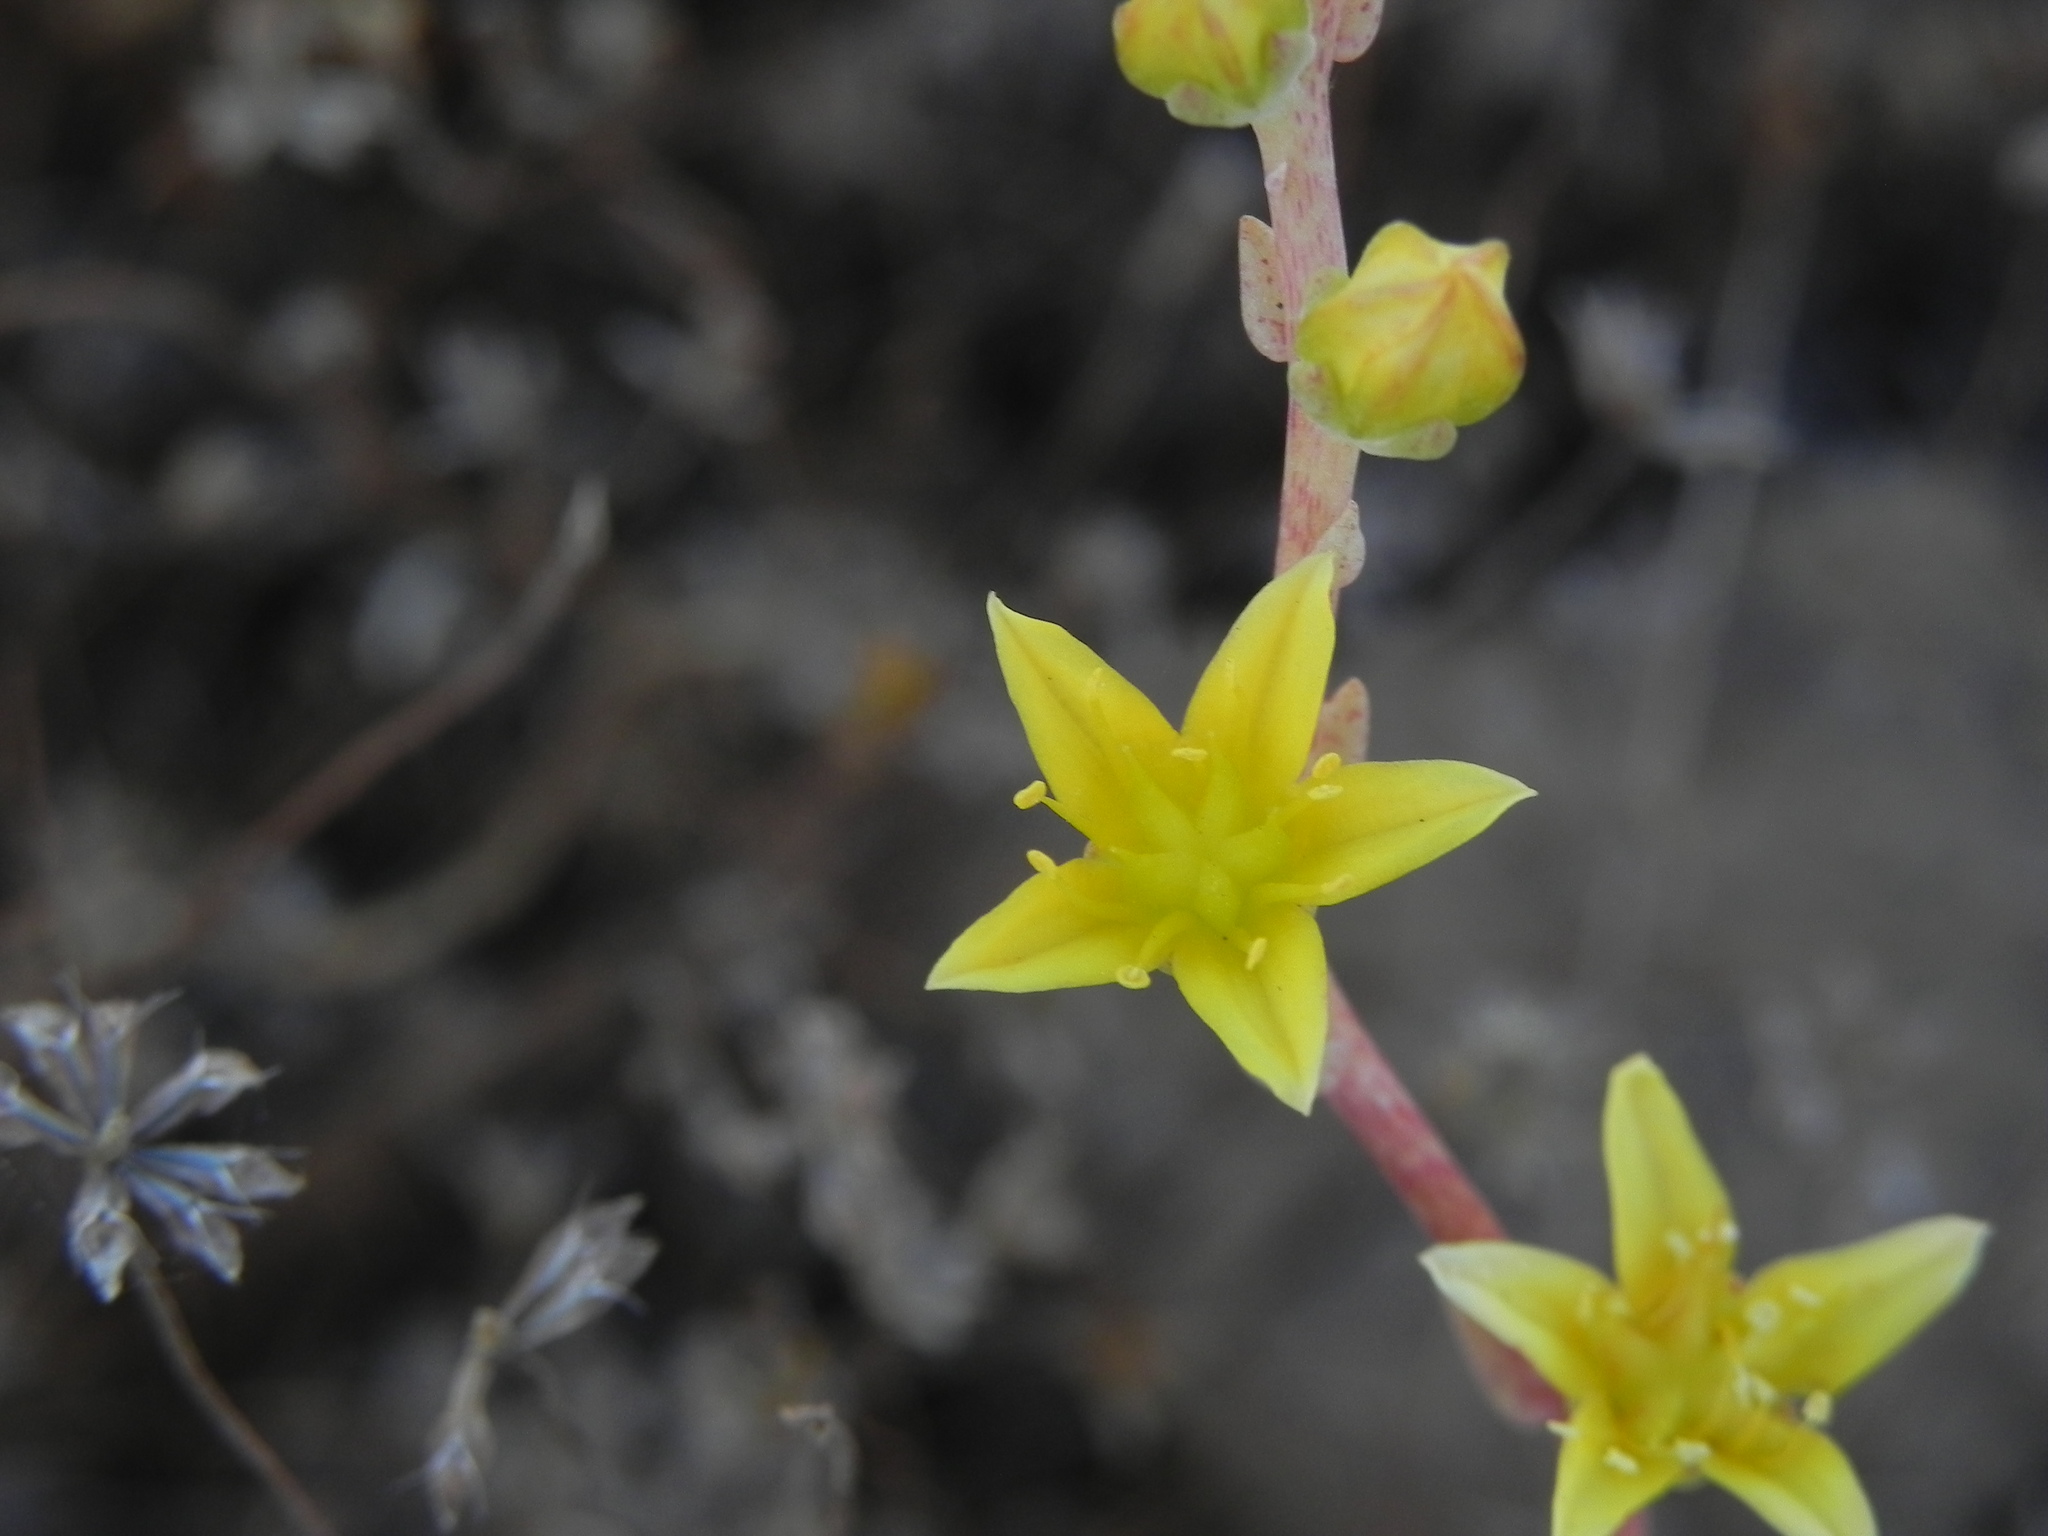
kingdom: Plantae
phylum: Tracheophyta
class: Magnoliopsida
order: Saxifragales
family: Crassulaceae
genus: Dudleya
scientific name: Dudleya variegata
